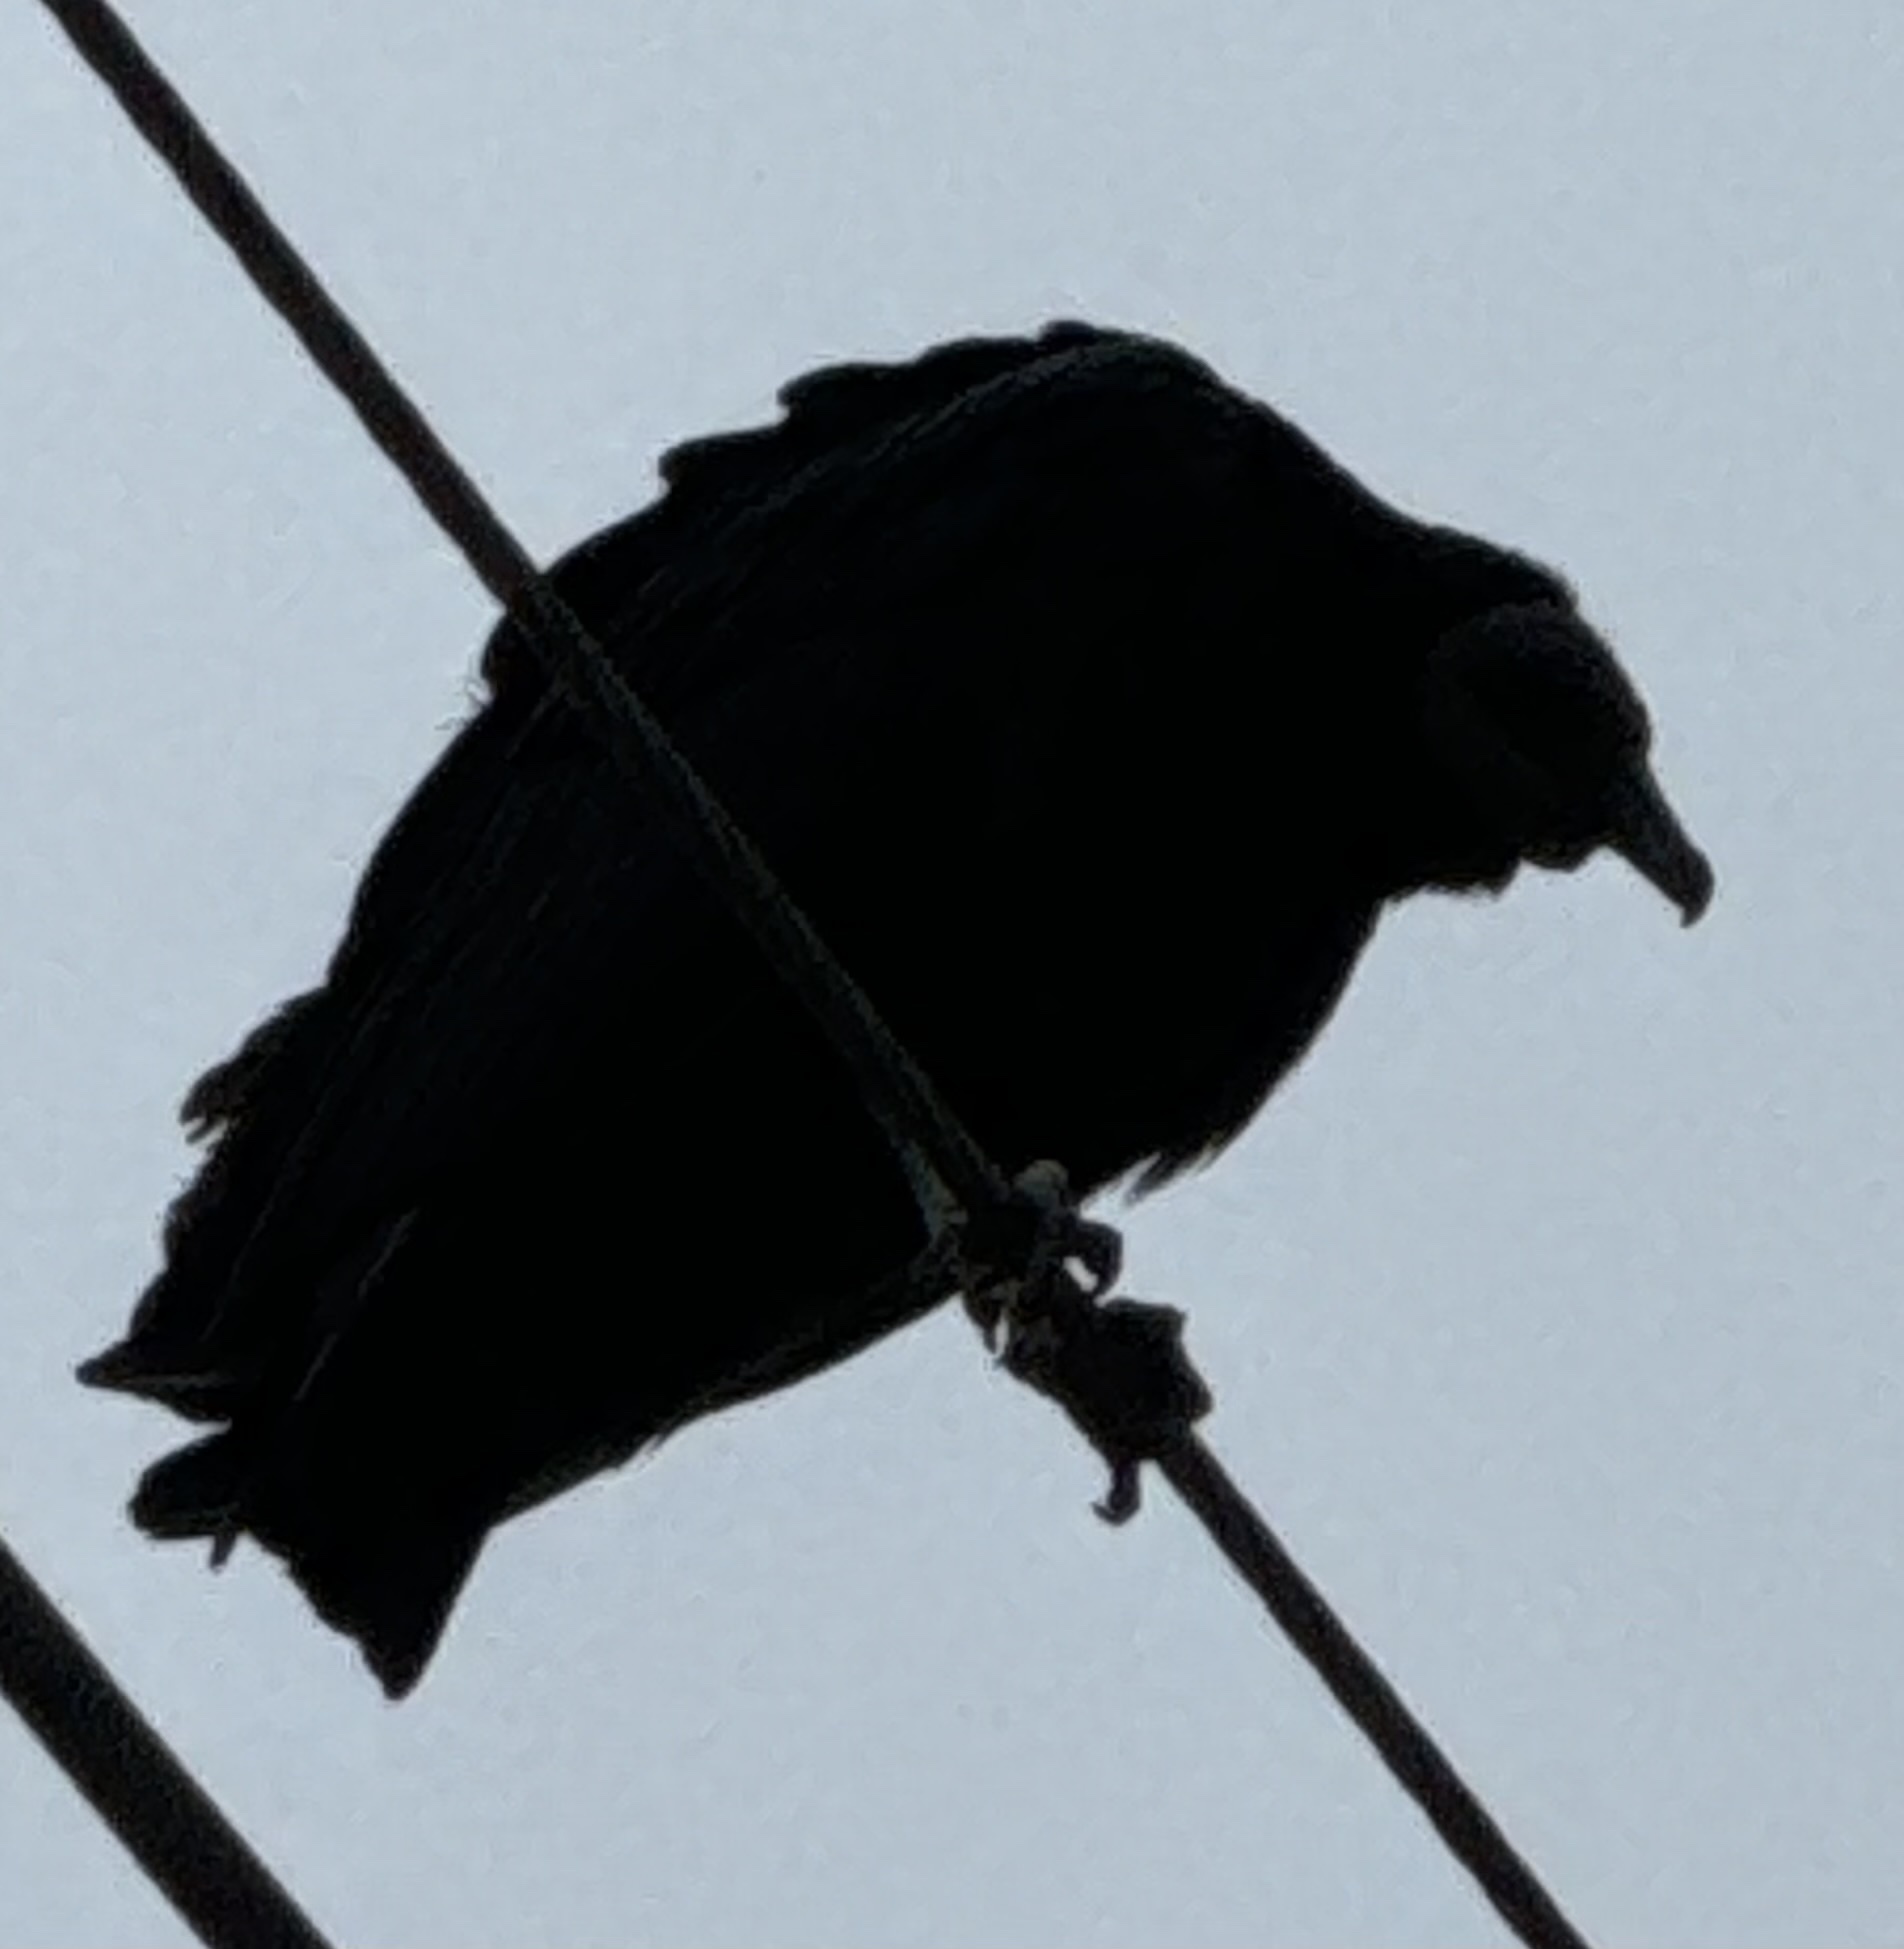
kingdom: Animalia
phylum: Chordata
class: Aves
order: Accipitriformes
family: Cathartidae
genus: Coragyps
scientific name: Coragyps atratus
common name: Black vulture
